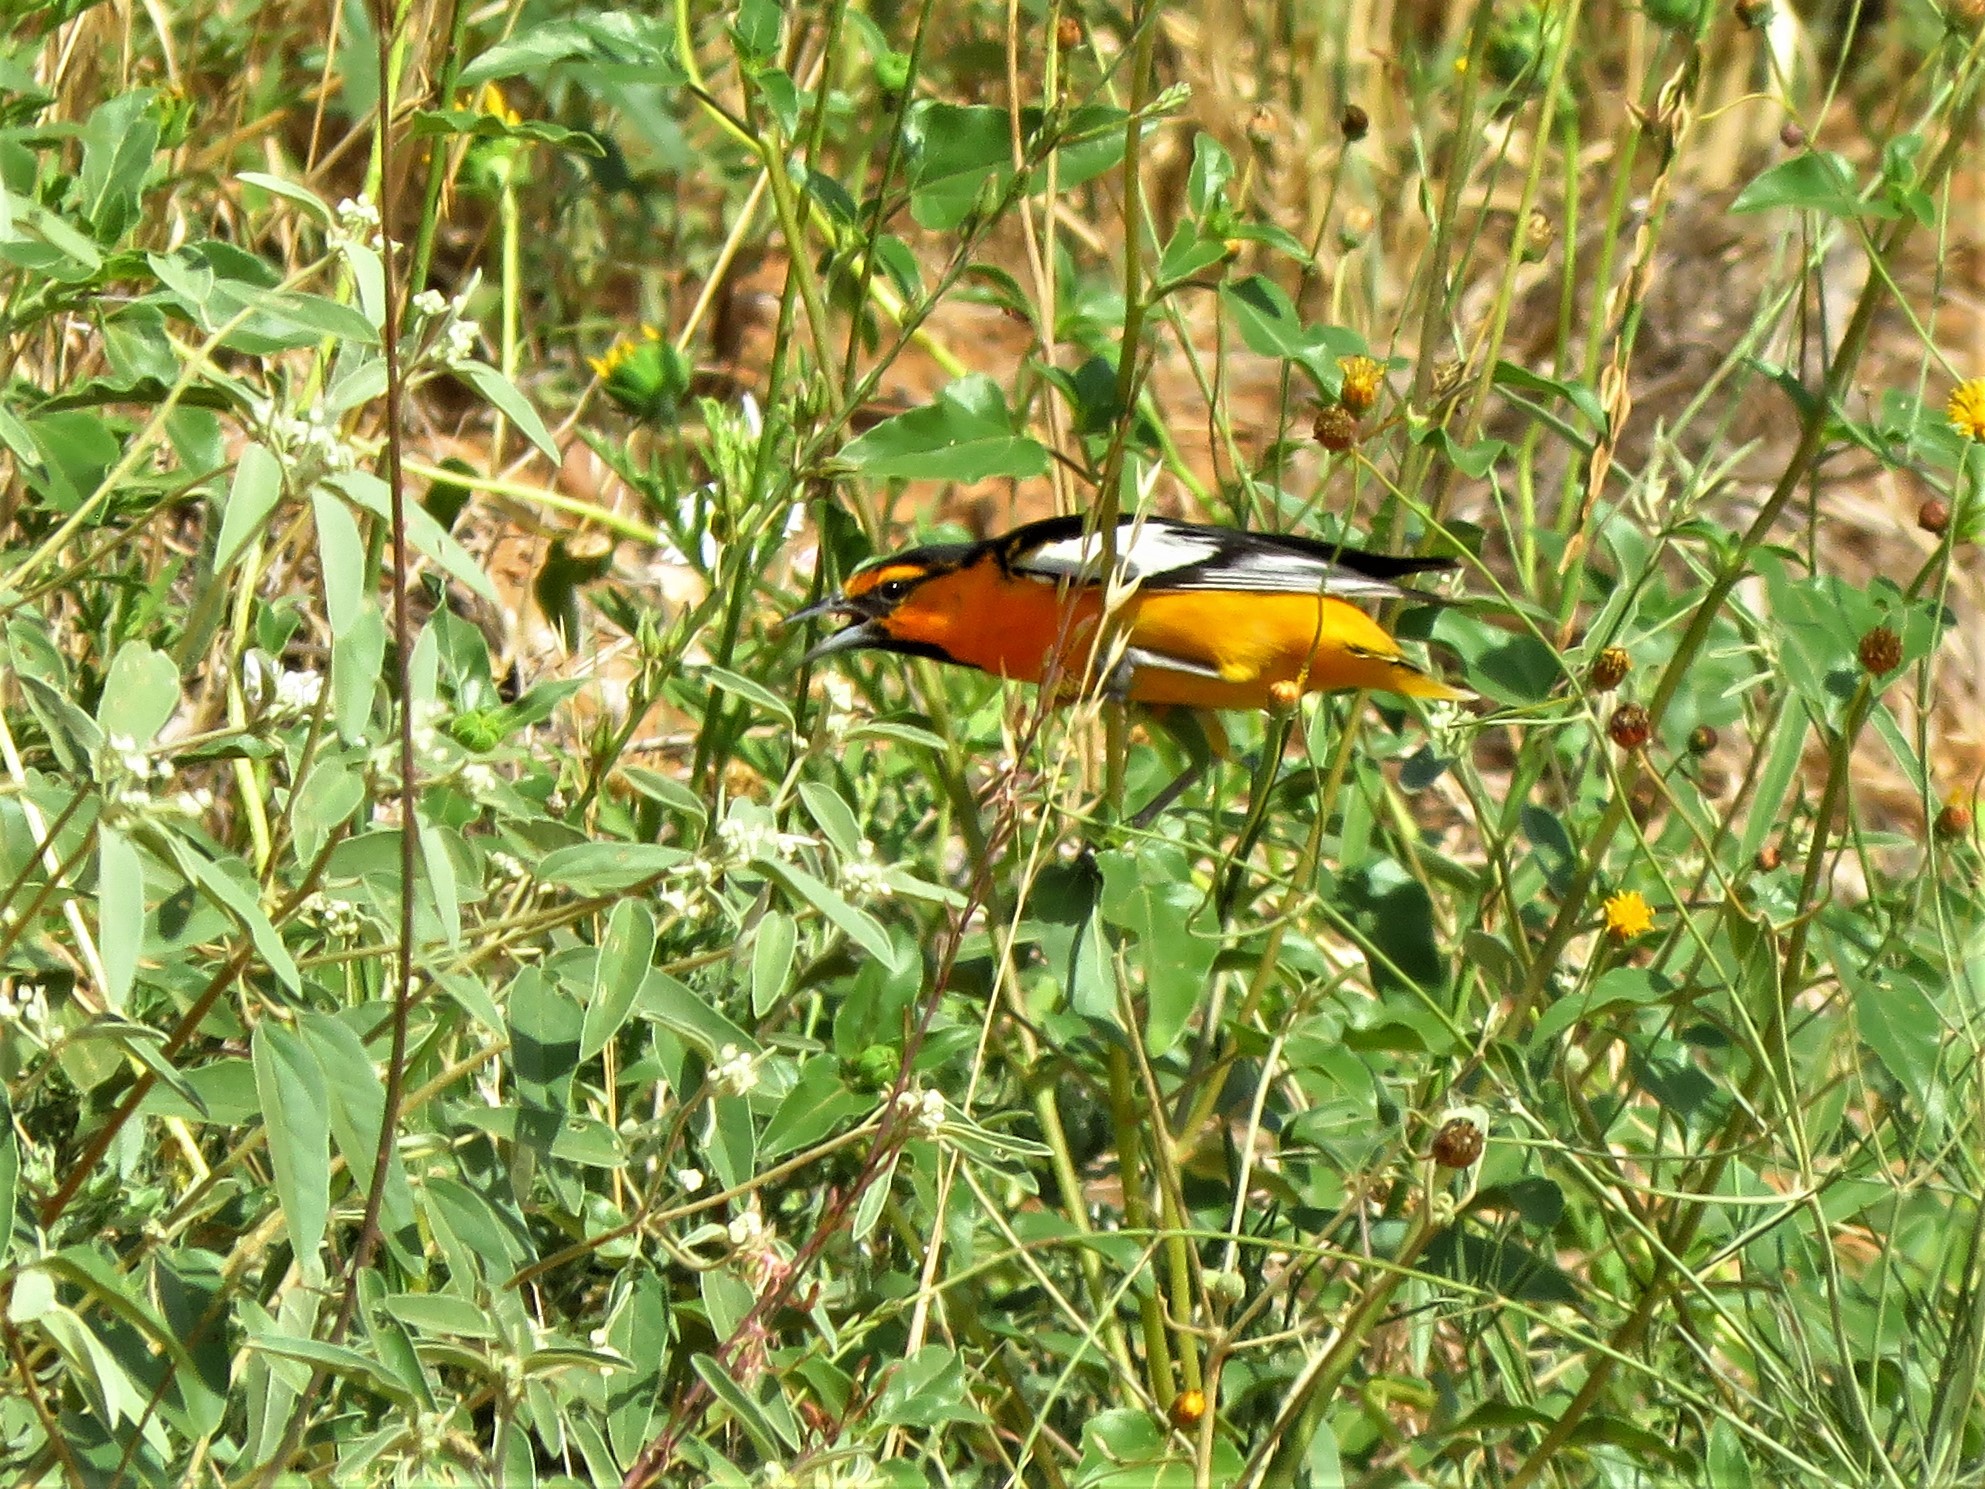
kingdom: Animalia
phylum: Chordata
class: Aves
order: Passeriformes
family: Icteridae
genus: Icterus
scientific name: Icterus bullockii
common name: Bullock's oriole
